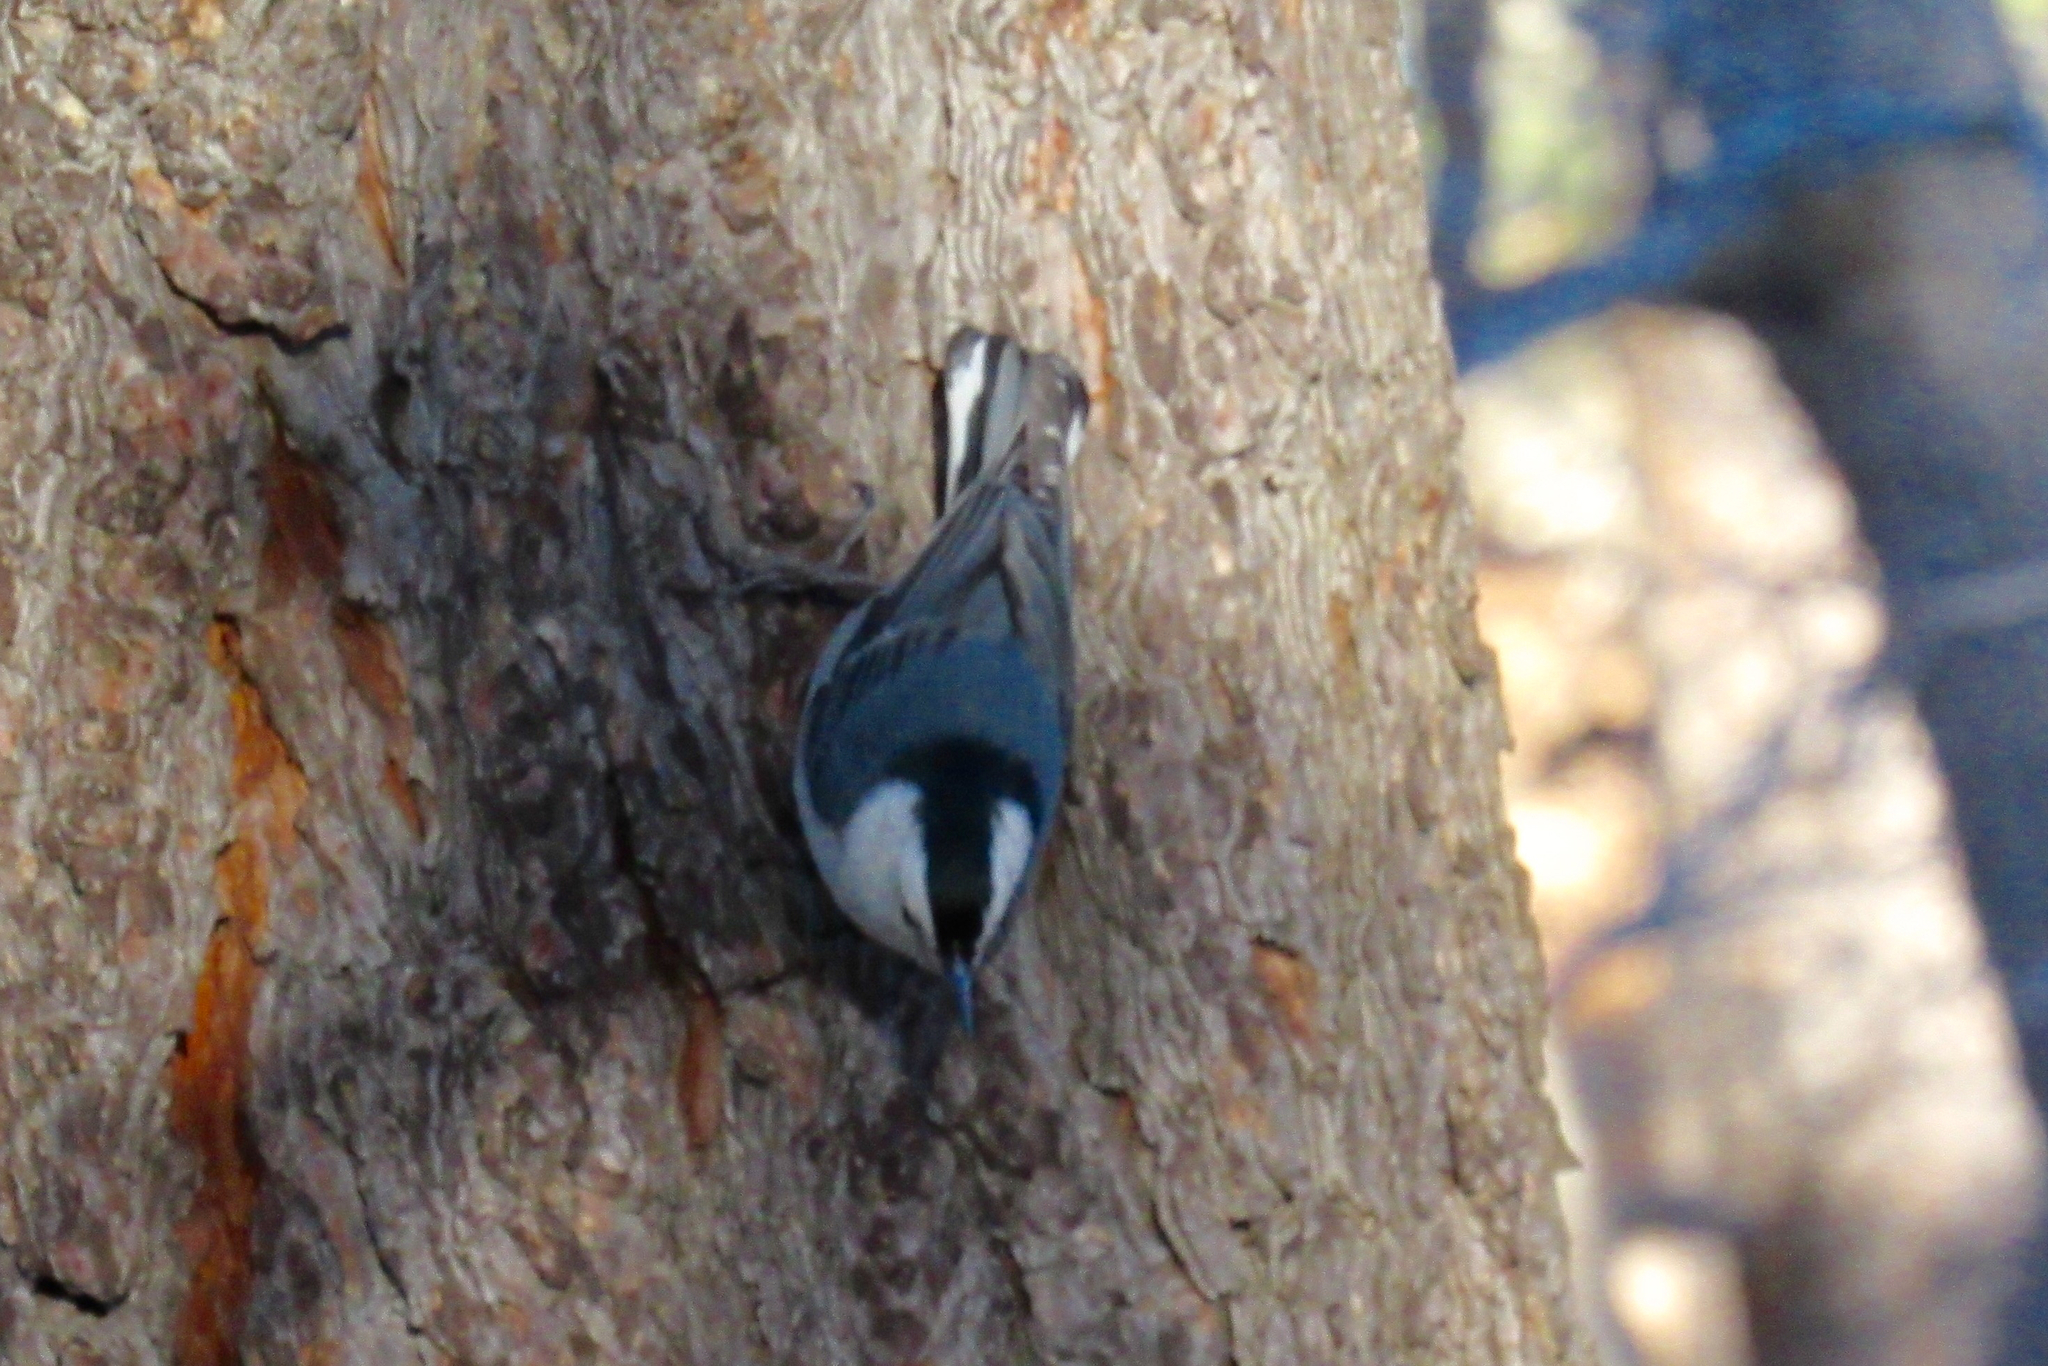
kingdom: Animalia
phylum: Chordata
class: Aves
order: Passeriformes
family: Sittidae
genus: Sitta
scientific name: Sitta carolinensis
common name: White-breasted nuthatch
